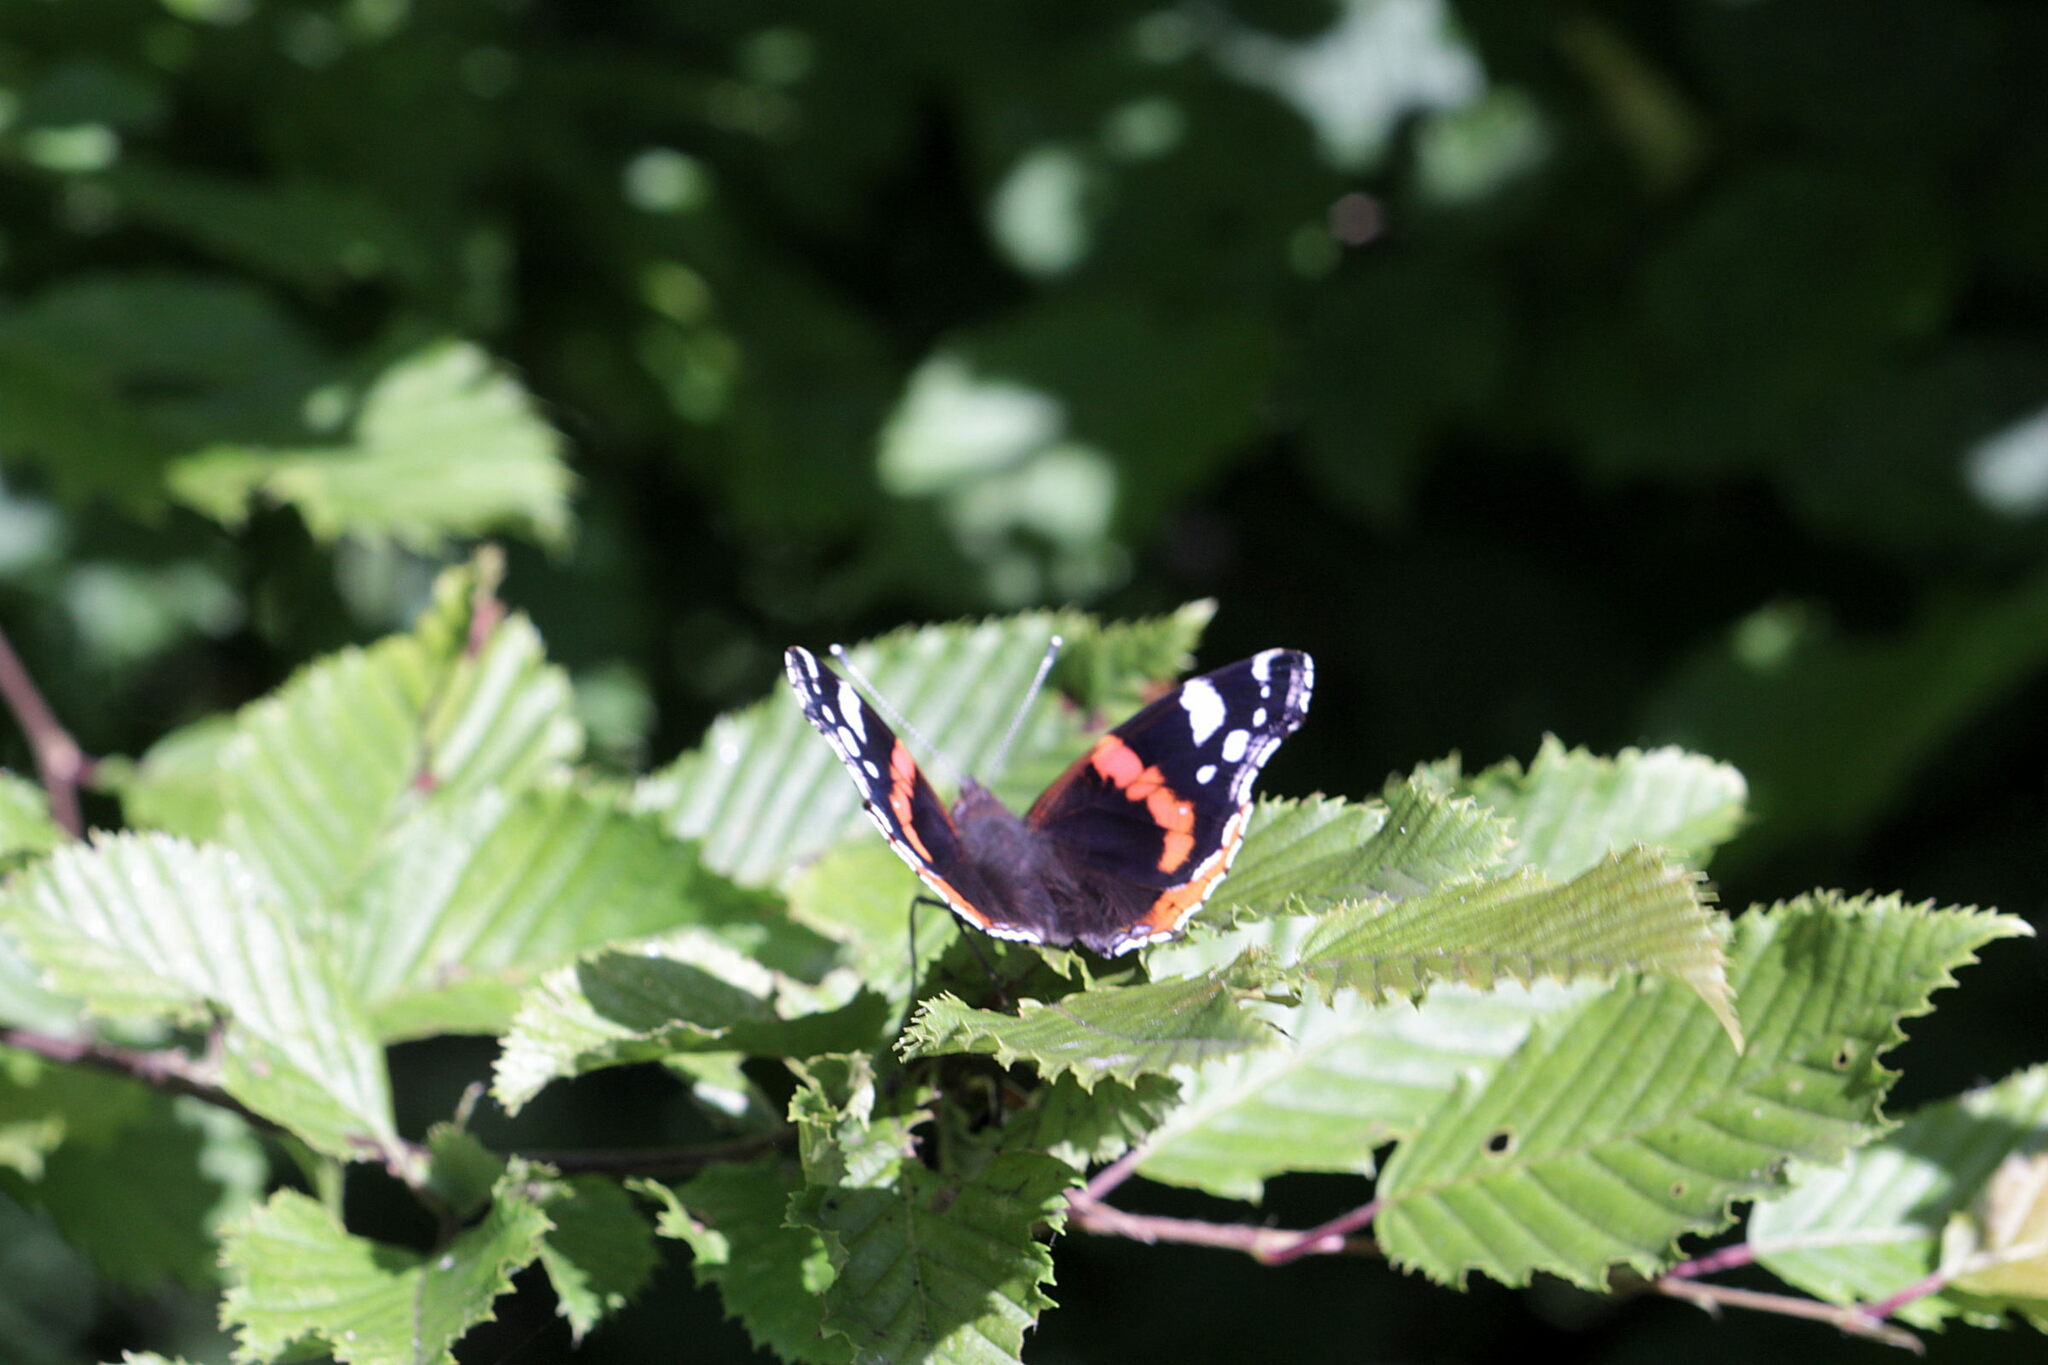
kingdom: Animalia
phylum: Arthropoda
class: Insecta
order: Lepidoptera
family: Nymphalidae
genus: Vanessa
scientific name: Vanessa atalanta
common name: Red admiral
